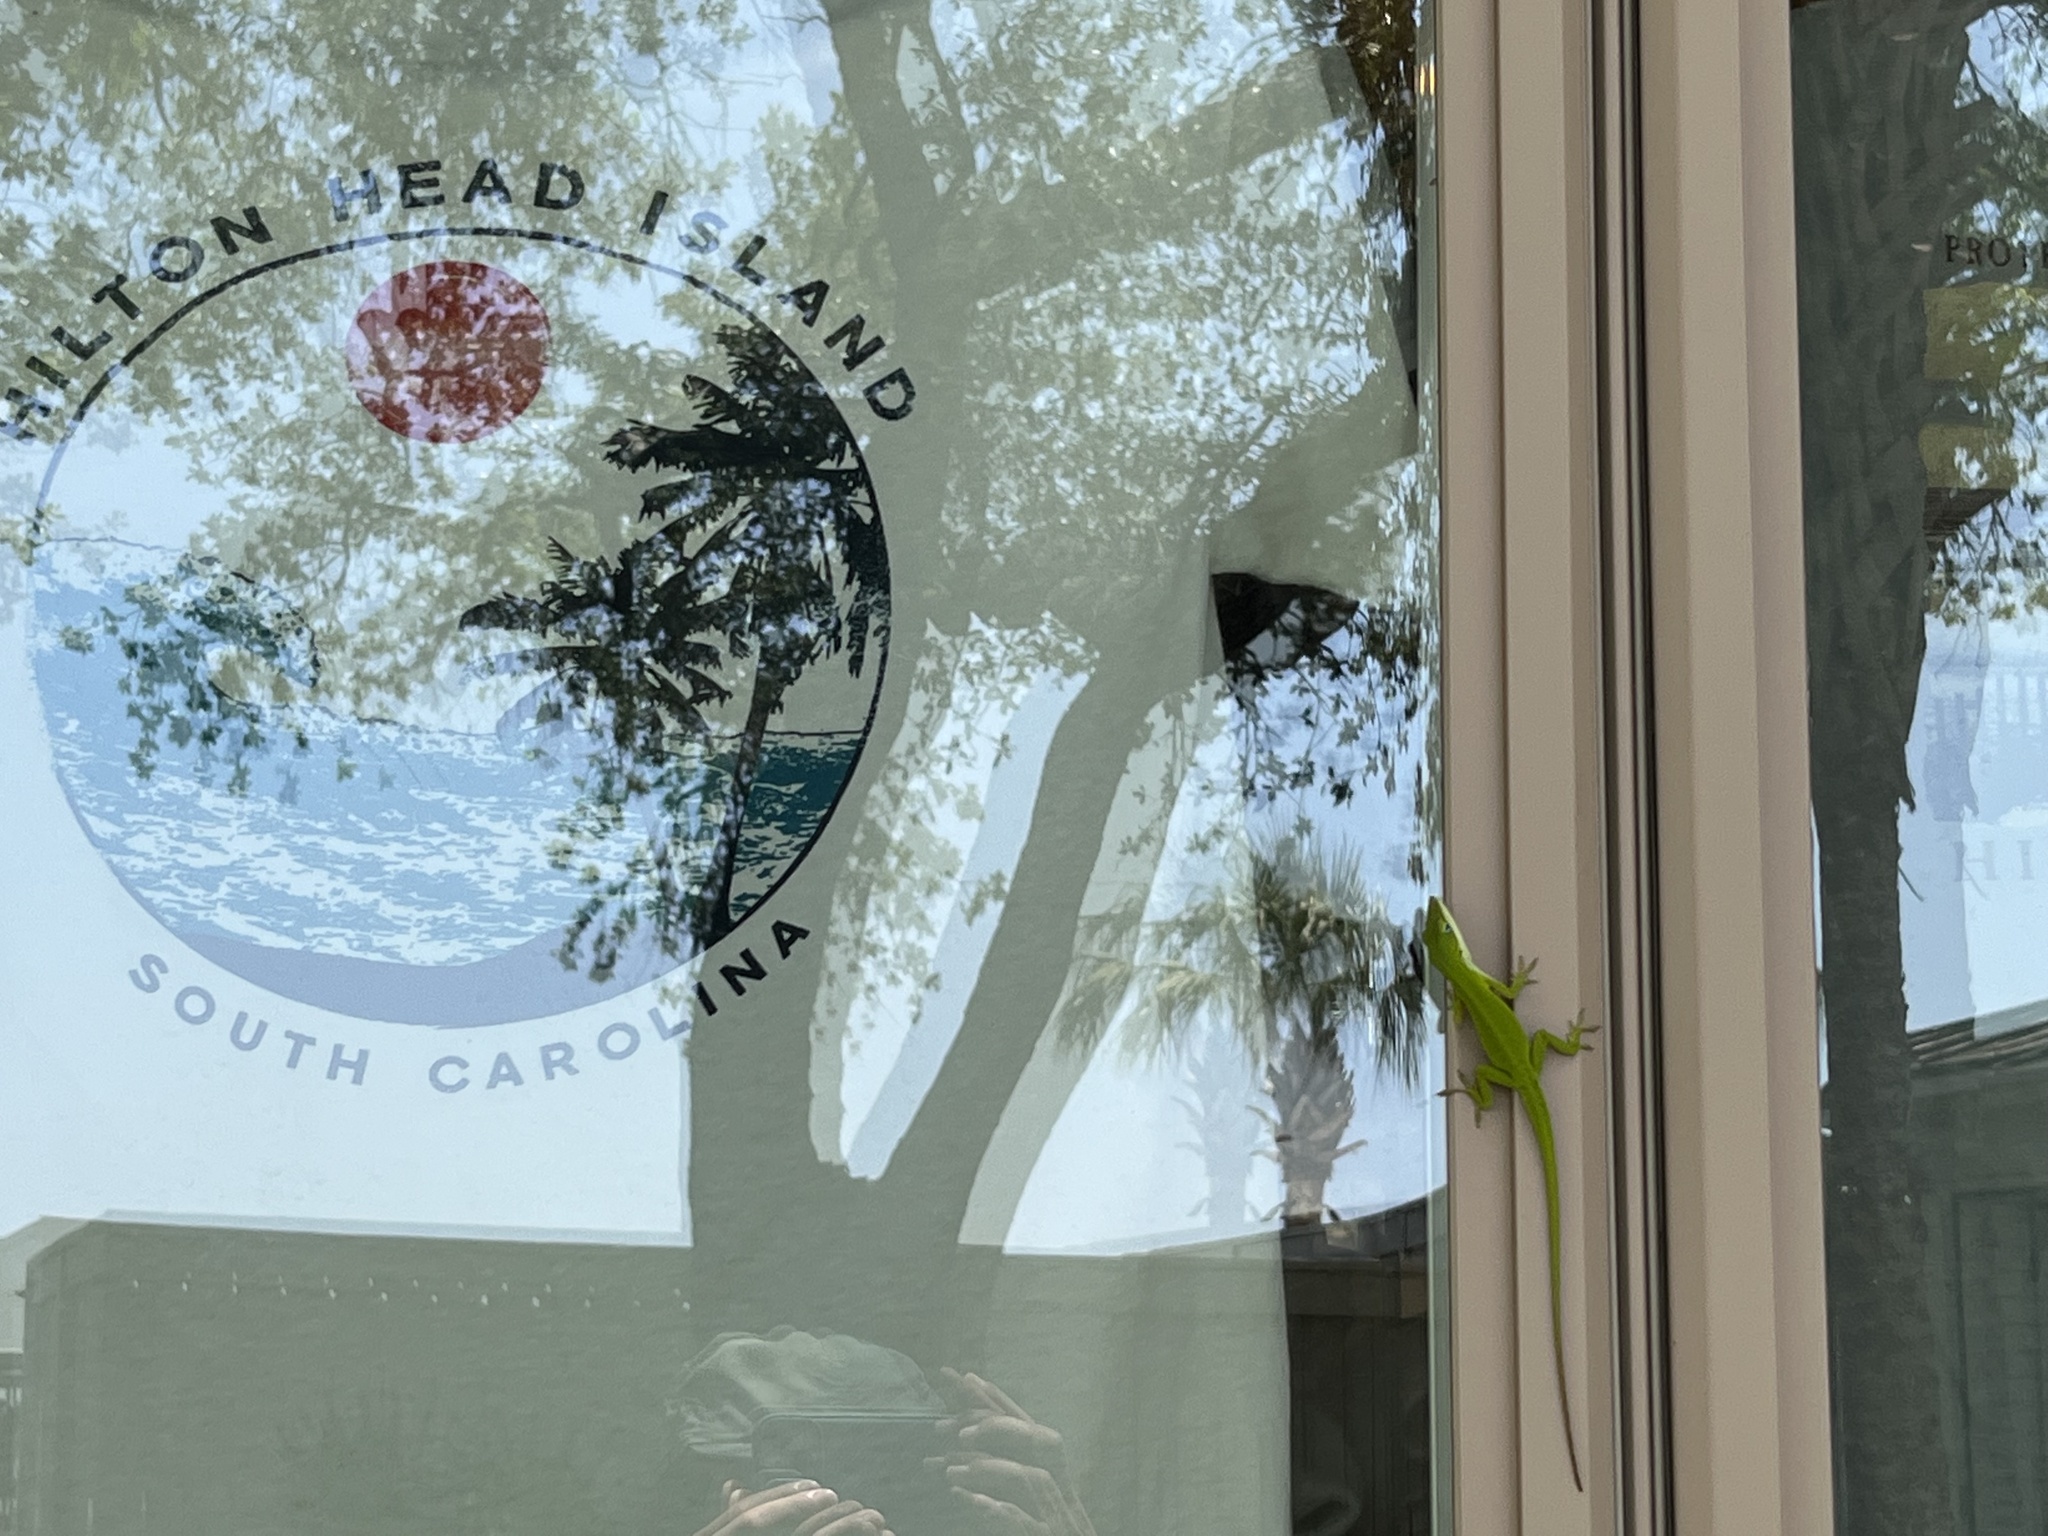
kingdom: Animalia
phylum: Chordata
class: Squamata
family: Dactyloidae
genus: Anolis
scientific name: Anolis carolinensis
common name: Green anole
